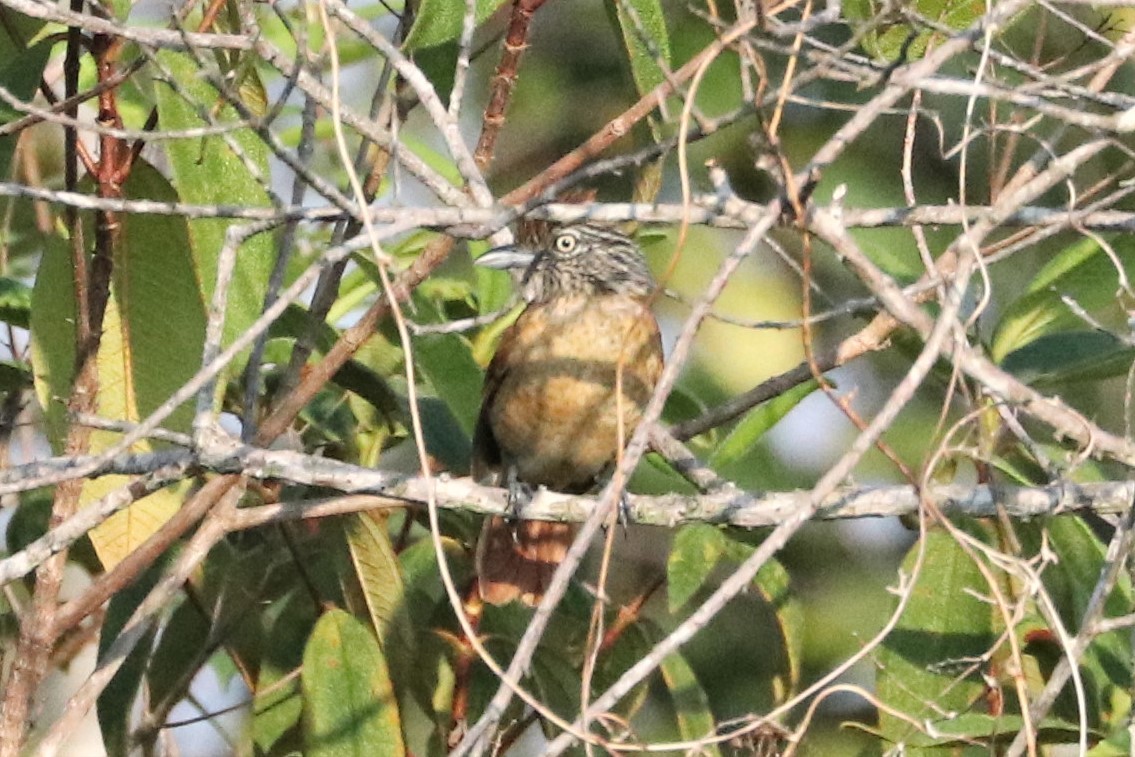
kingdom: Animalia
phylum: Chordata
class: Aves
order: Passeriformes
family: Thamnophilidae
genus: Thamnophilus
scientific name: Thamnophilus doliatus
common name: Barred antshrike
